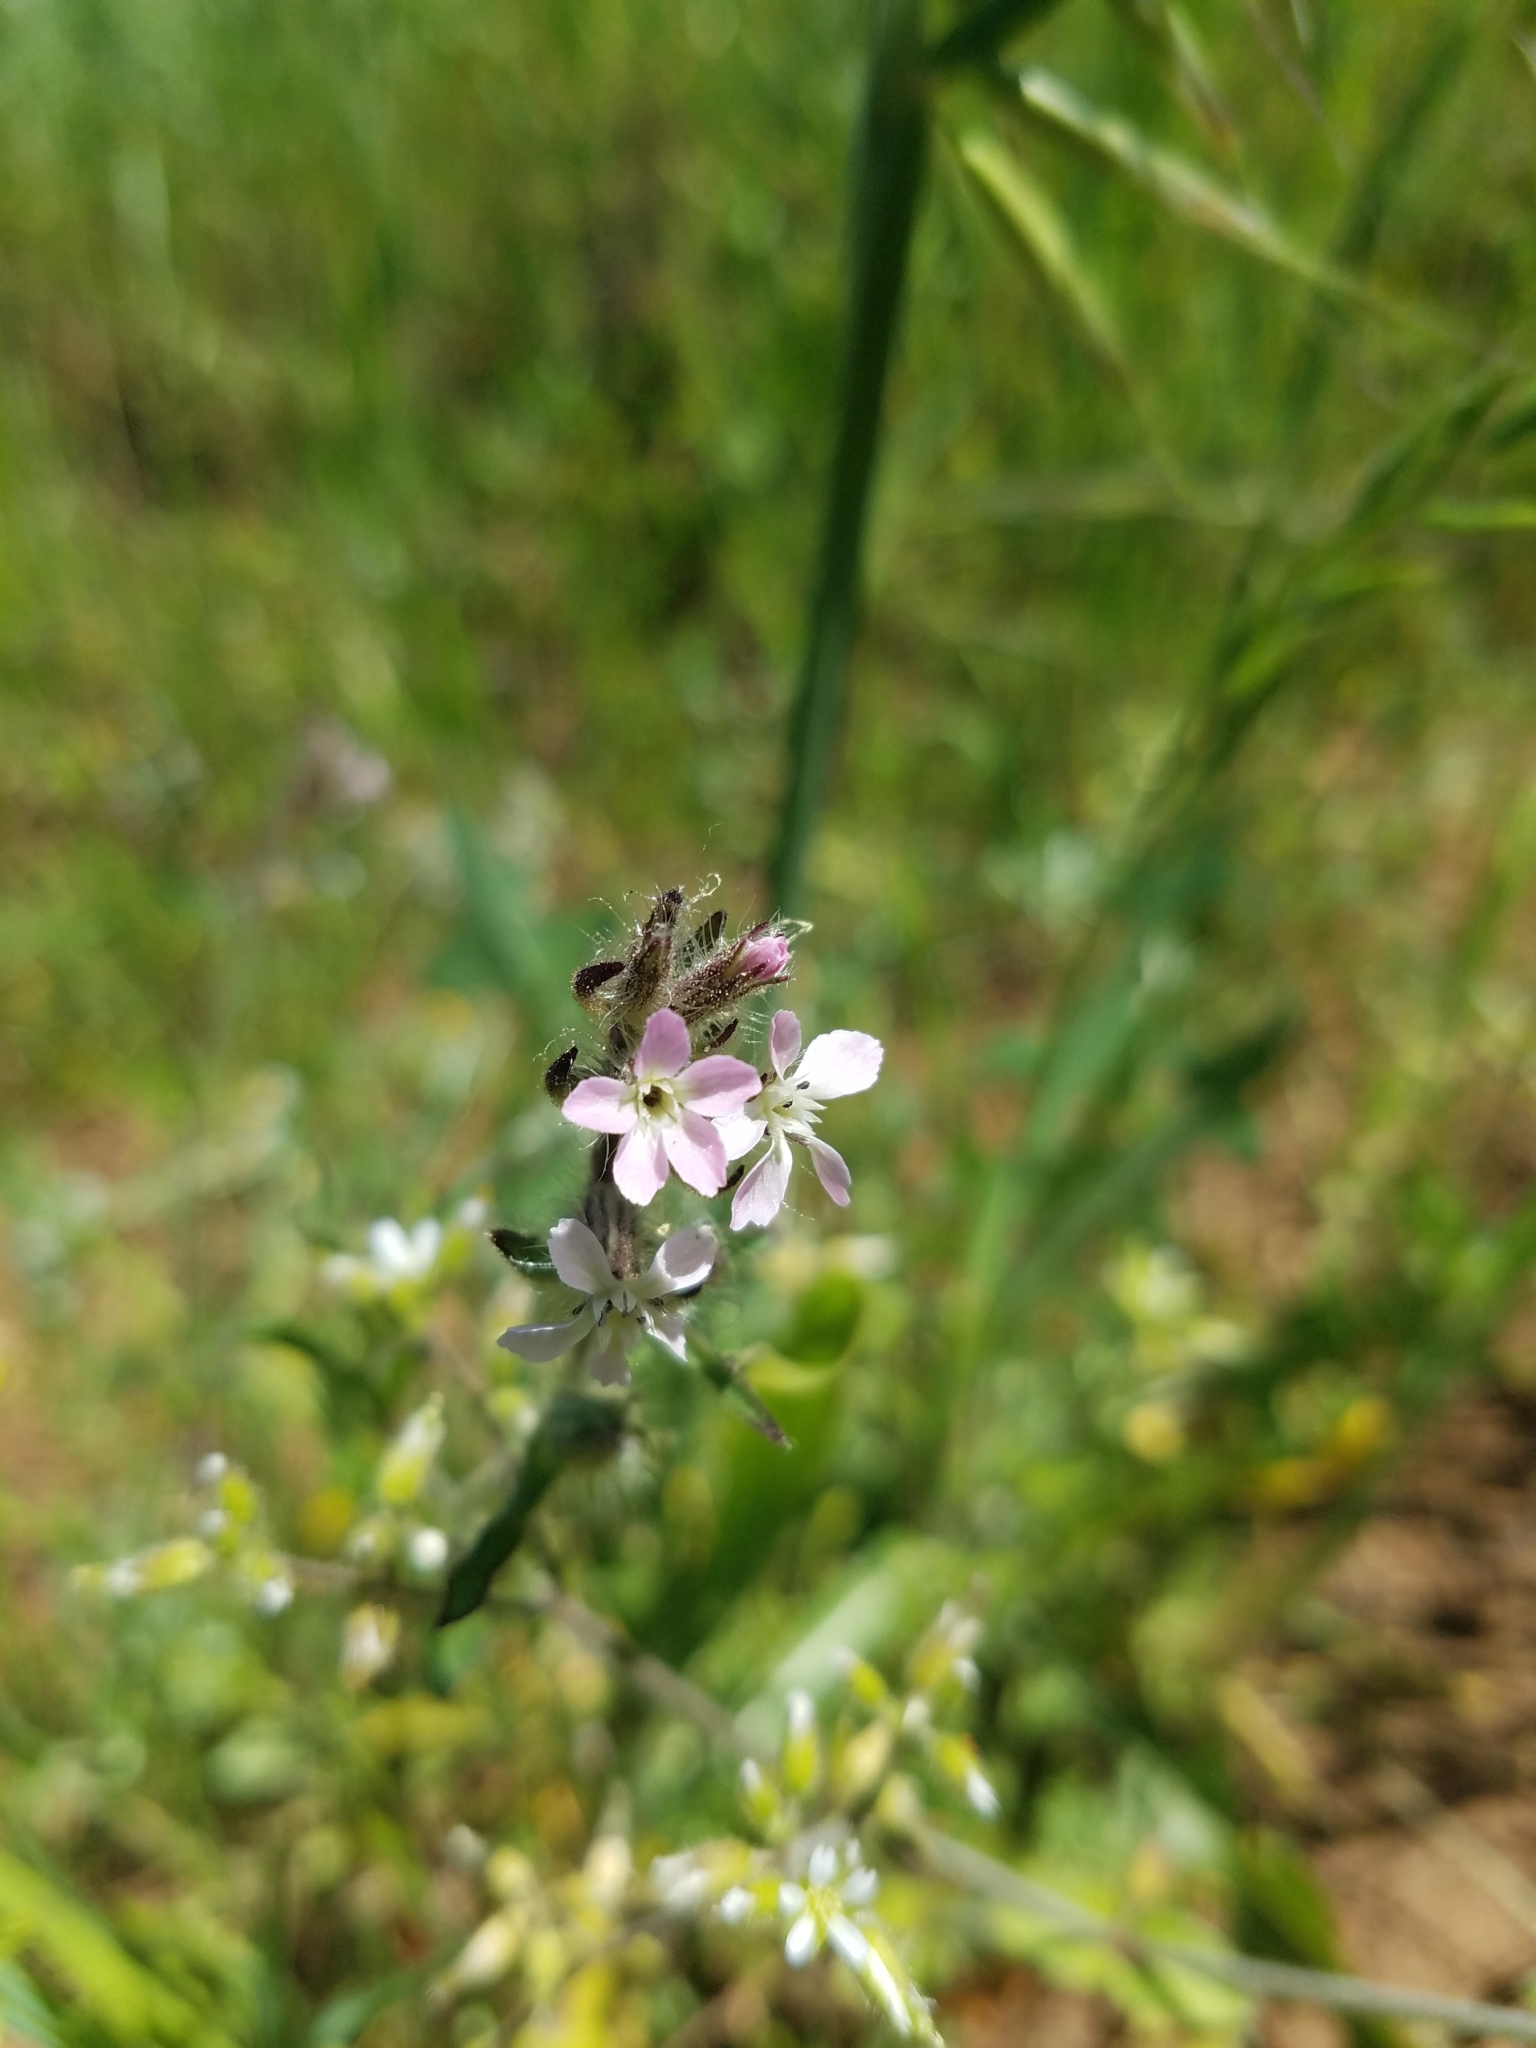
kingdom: Plantae
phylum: Tracheophyta
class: Magnoliopsida
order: Caryophyllales
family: Caryophyllaceae
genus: Silene
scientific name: Silene gallica
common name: Small-flowered catchfly
